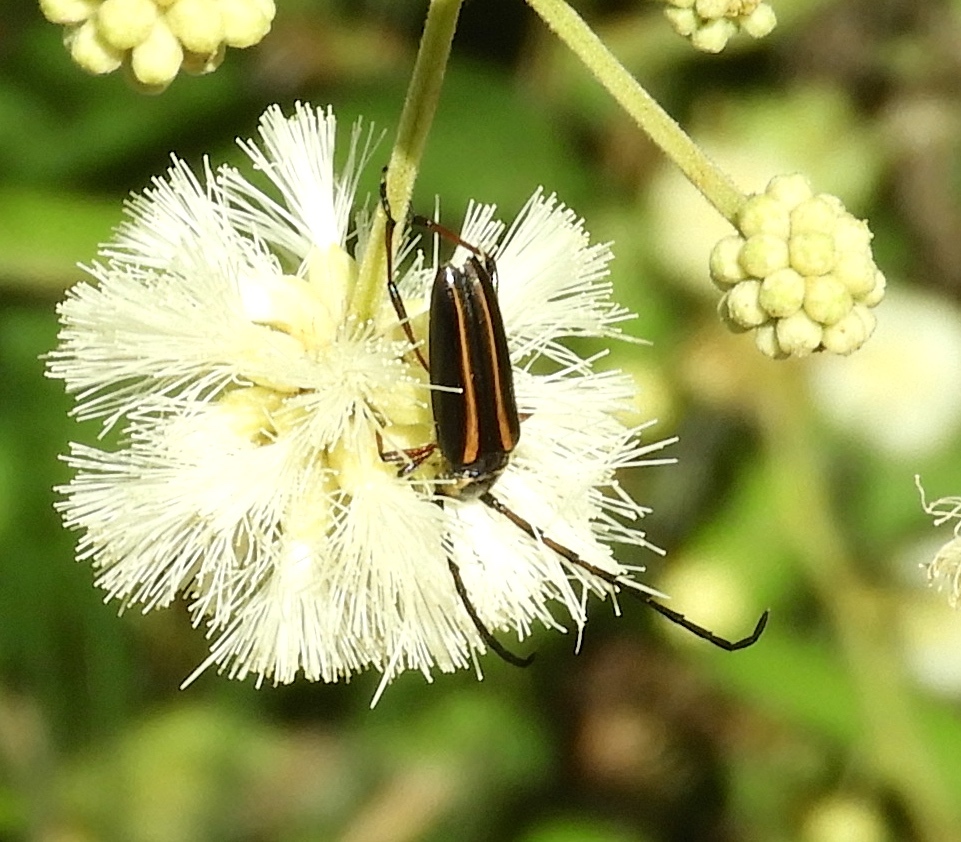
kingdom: Animalia
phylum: Arthropoda
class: Insecta
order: Coleoptera
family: Cerambycidae
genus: Sphaenothecus
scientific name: Sphaenothecus picticornis
